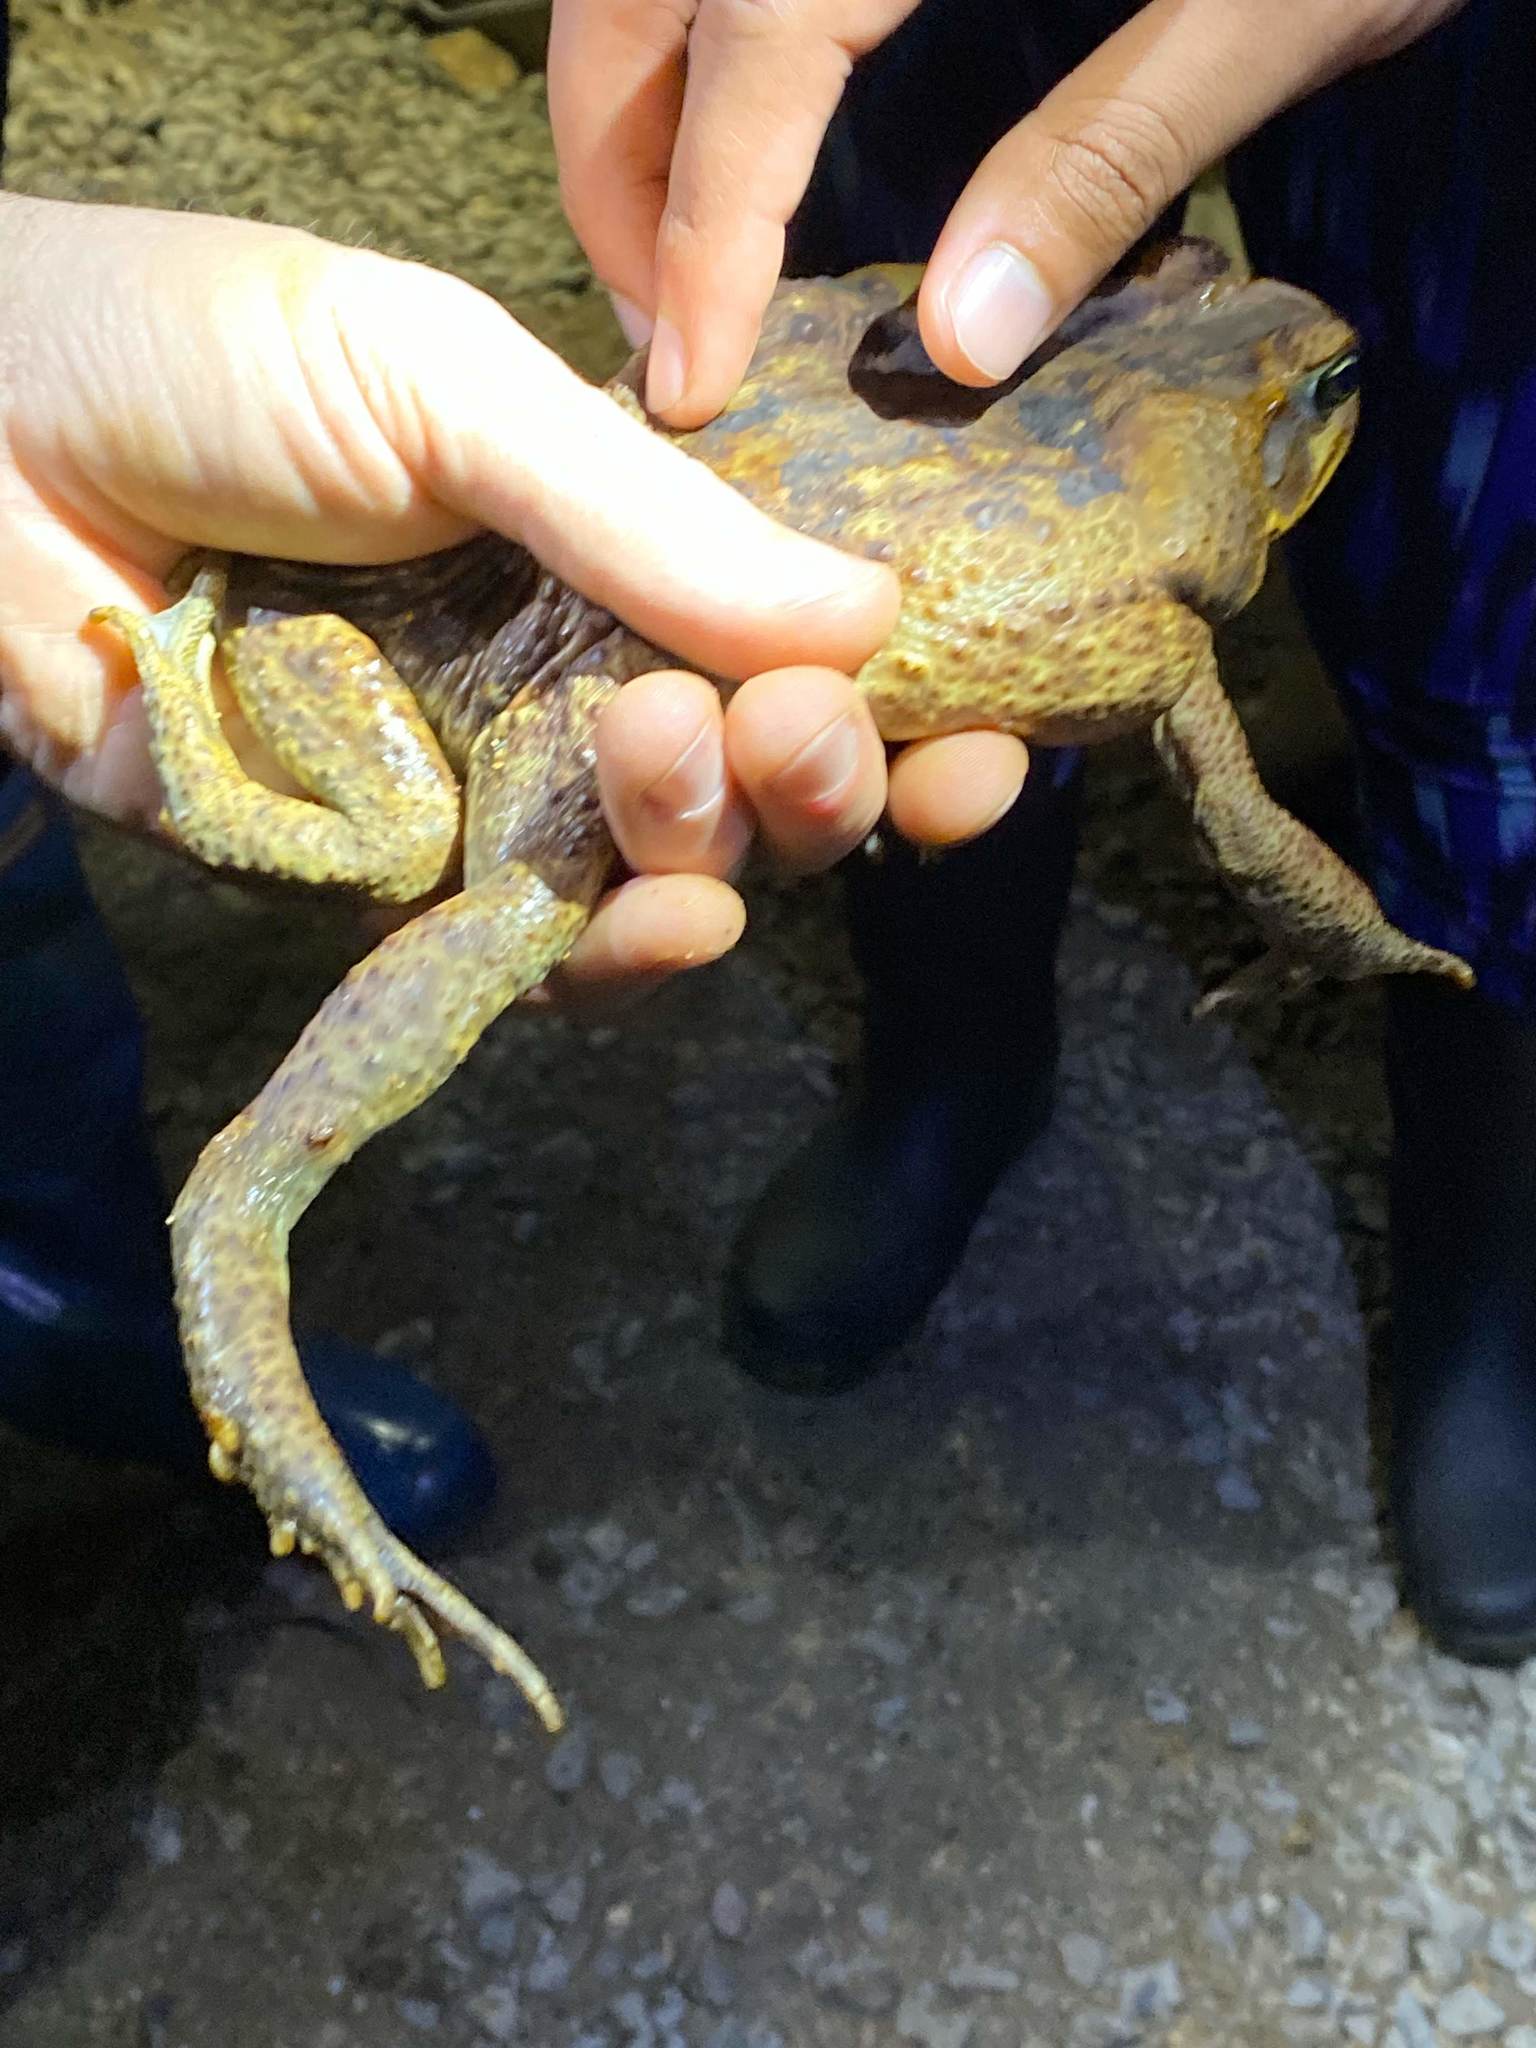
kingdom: Animalia
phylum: Chordata
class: Amphibia
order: Anura
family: Bufonidae
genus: Rhinella
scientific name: Rhinella horribilis
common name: Mesoamerican cane toad
